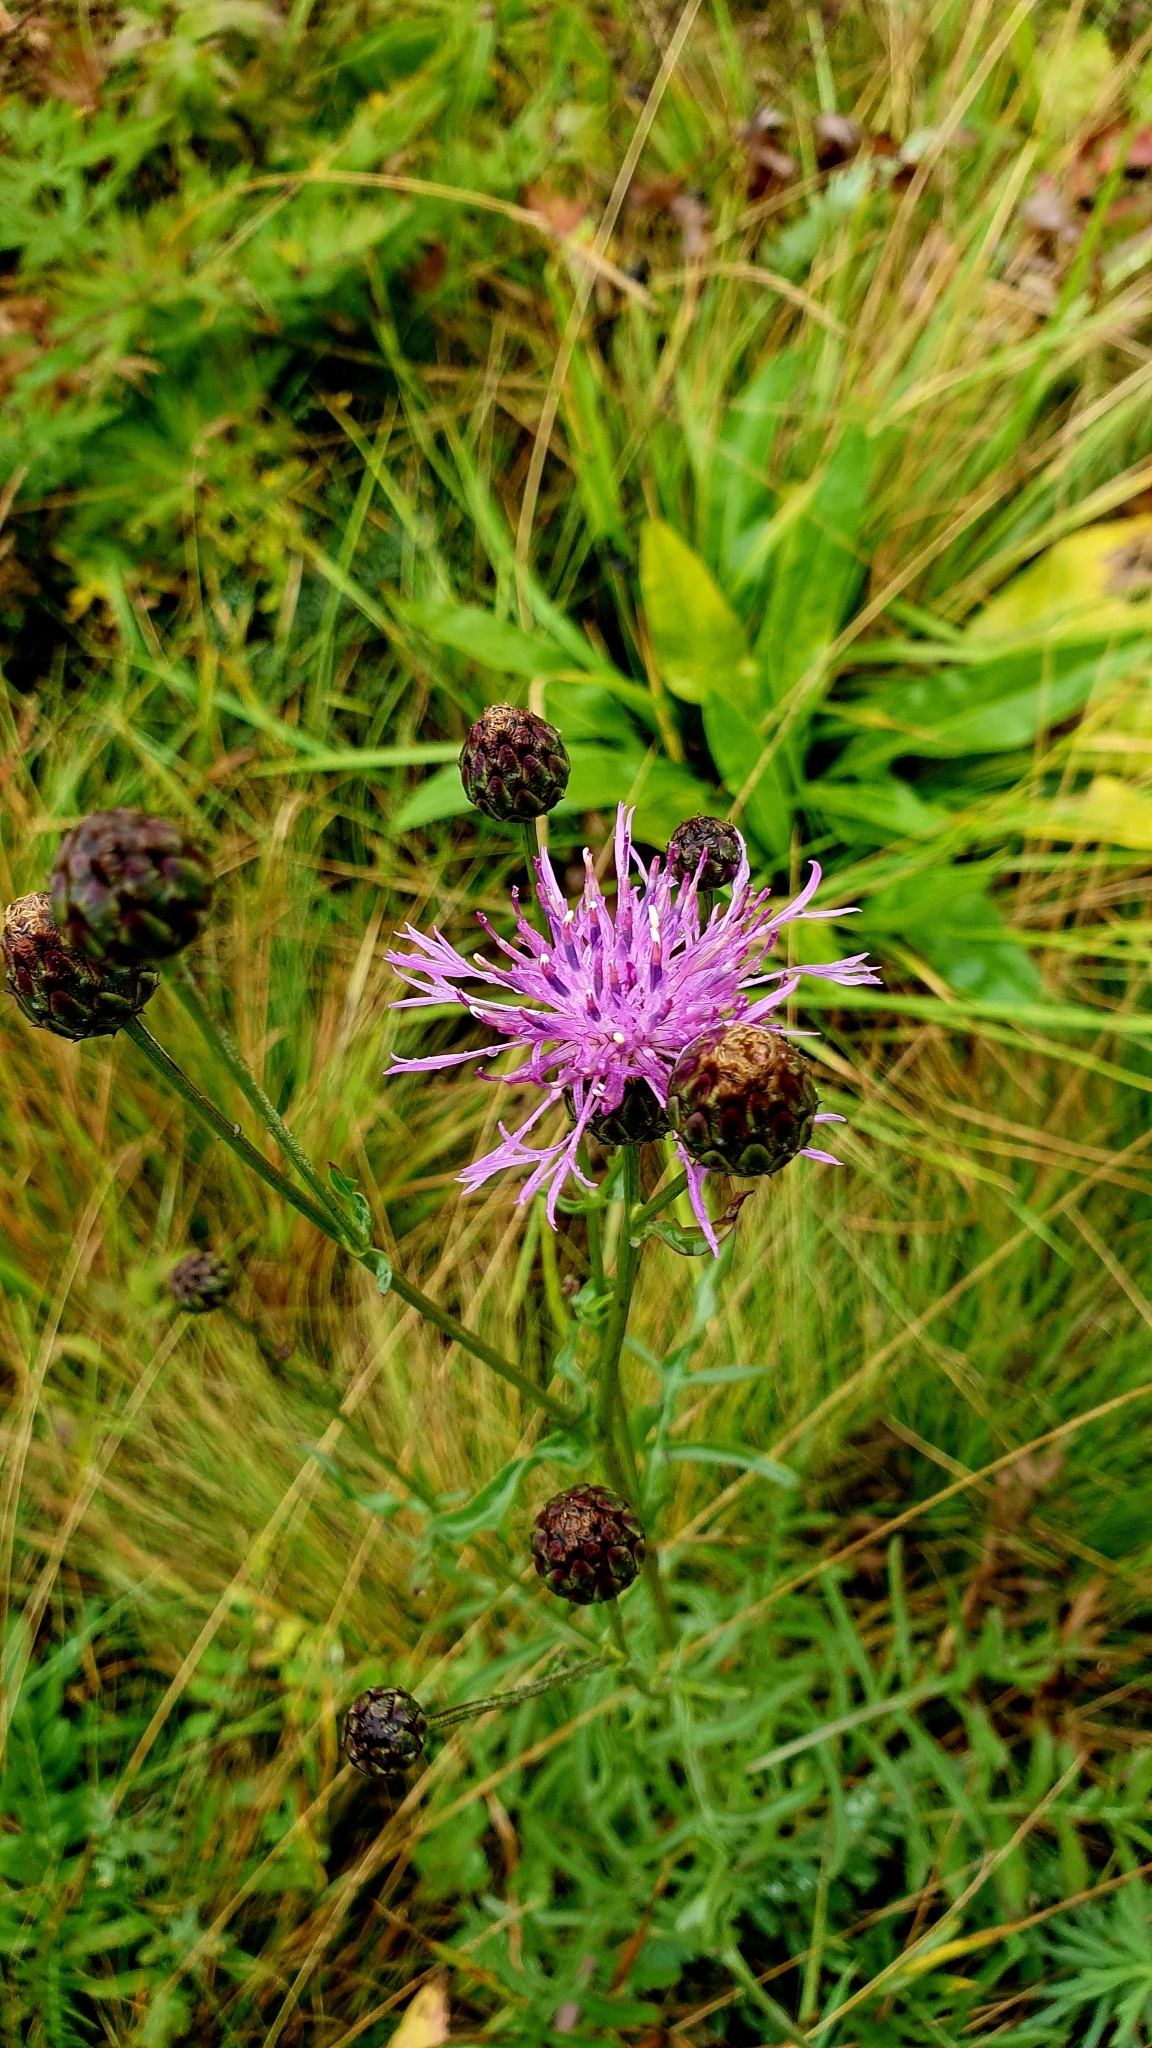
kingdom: Plantae
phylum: Tracheophyta
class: Magnoliopsida
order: Asterales
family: Asteraceae
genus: Centaurea
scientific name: Centaurea scabiosa
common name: Greater knapweed
